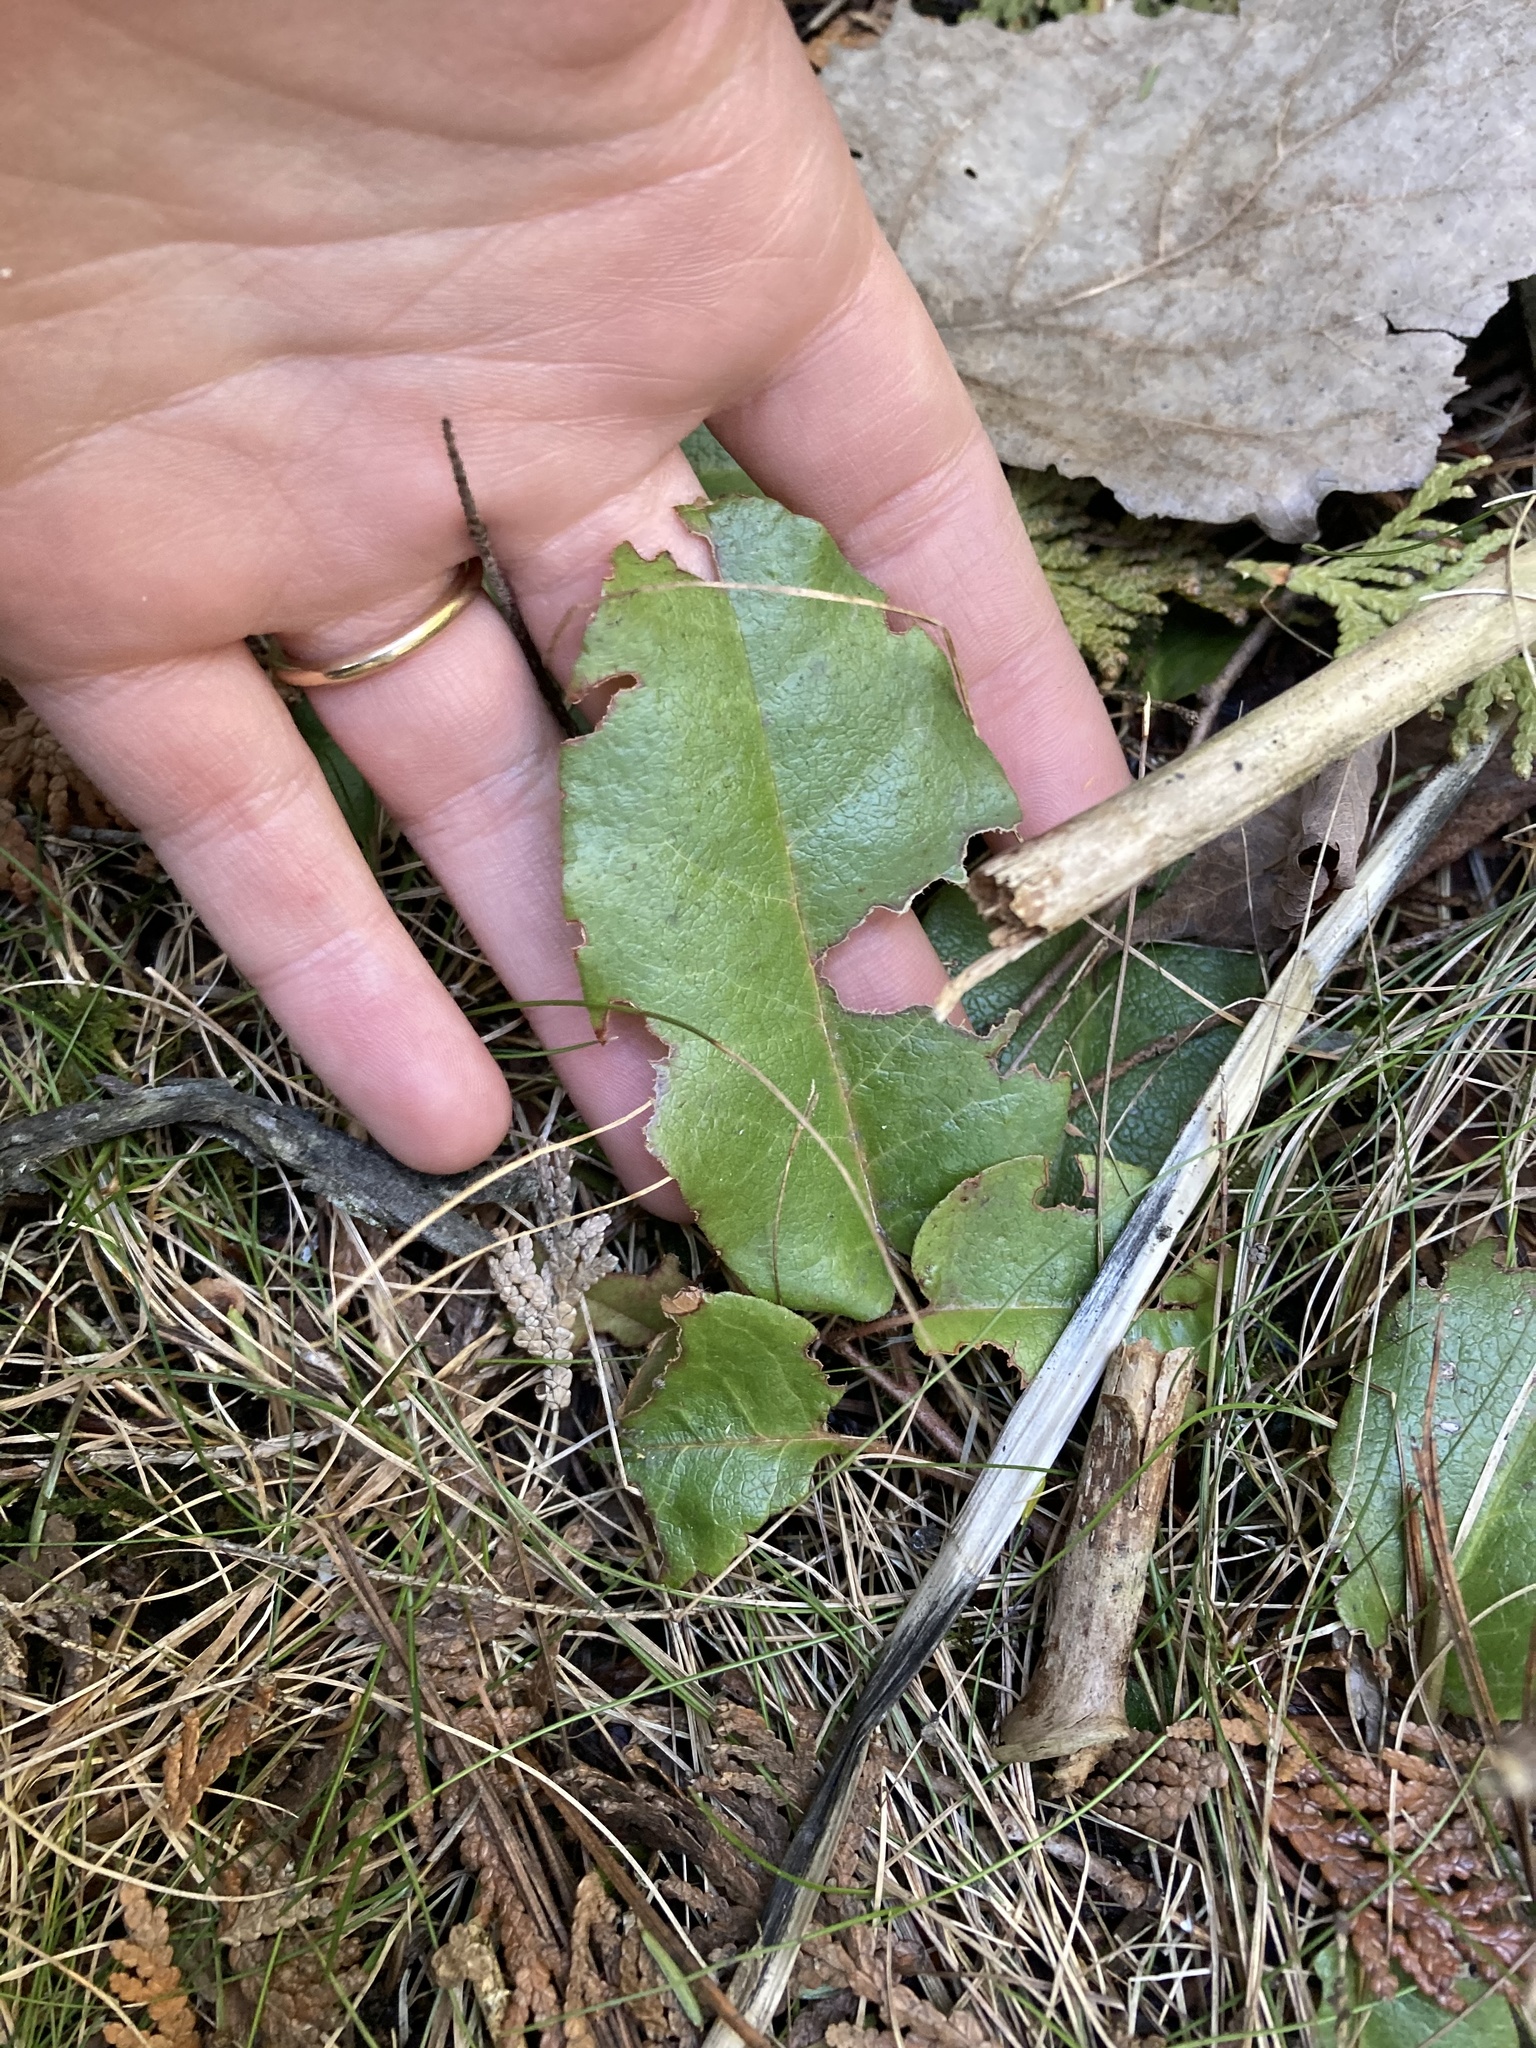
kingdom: Plantae
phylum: Tracheophyta
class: Magnoliopsida
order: Ericales
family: Ericaceae
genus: Epigaea
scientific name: Epigaea repens
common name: Gravelroot
